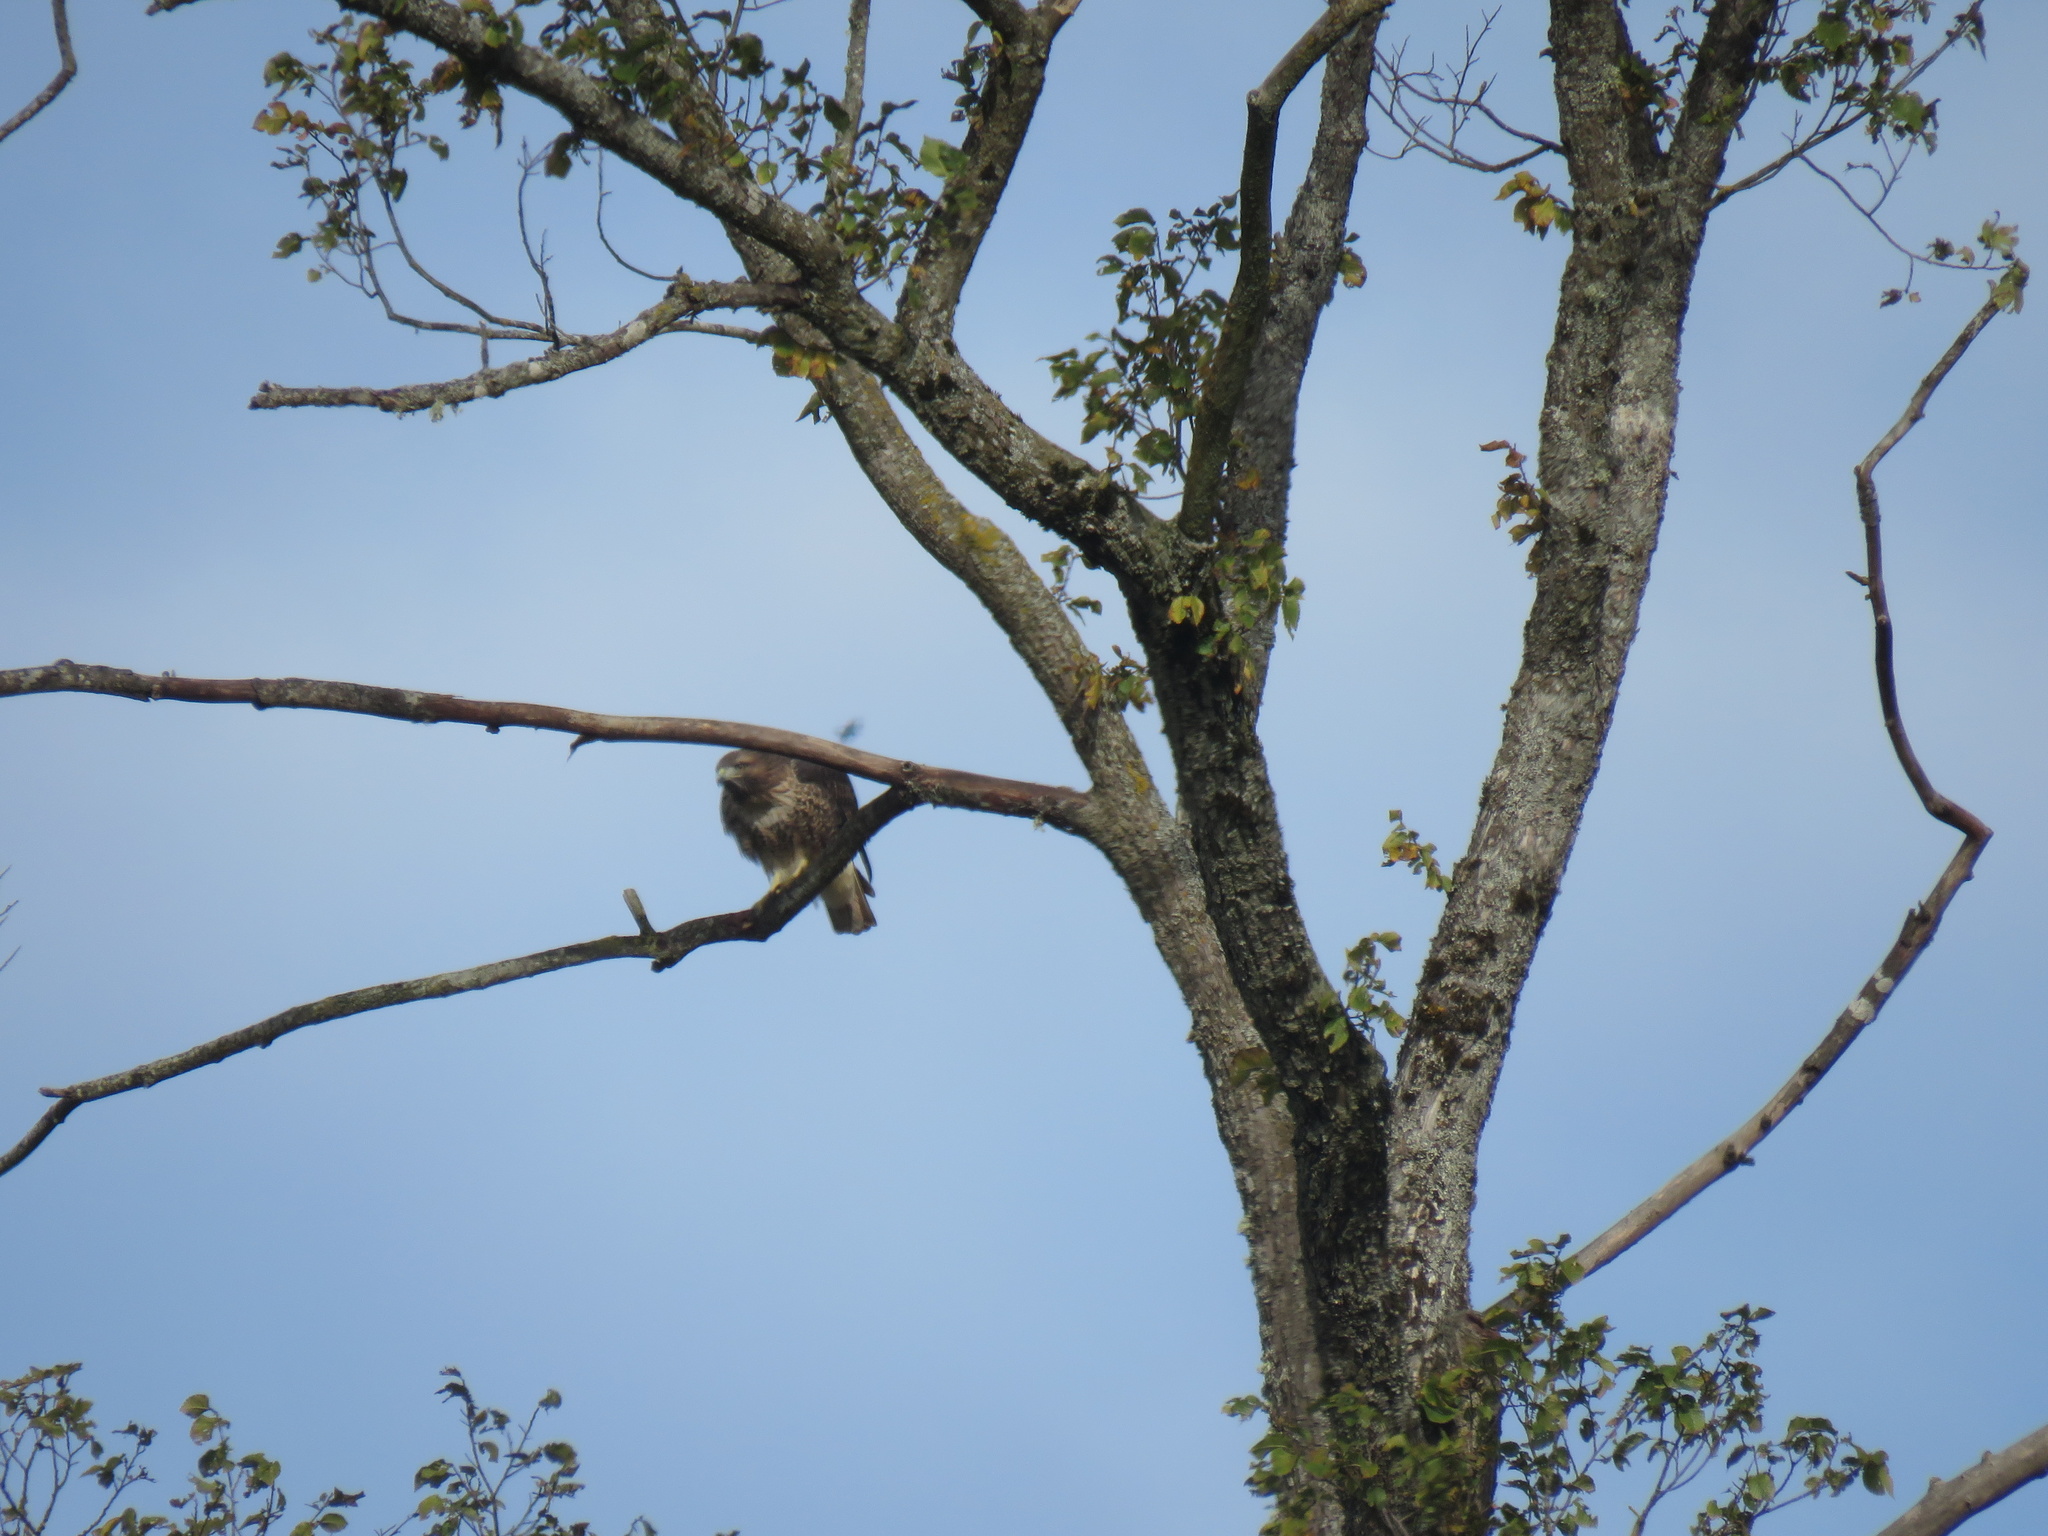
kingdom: Animalia
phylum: Chordata
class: Aves
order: Accipitriformes
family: Accipitridae
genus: Buteo
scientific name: Buteo jamaicensis
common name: Red-tailed hawk
